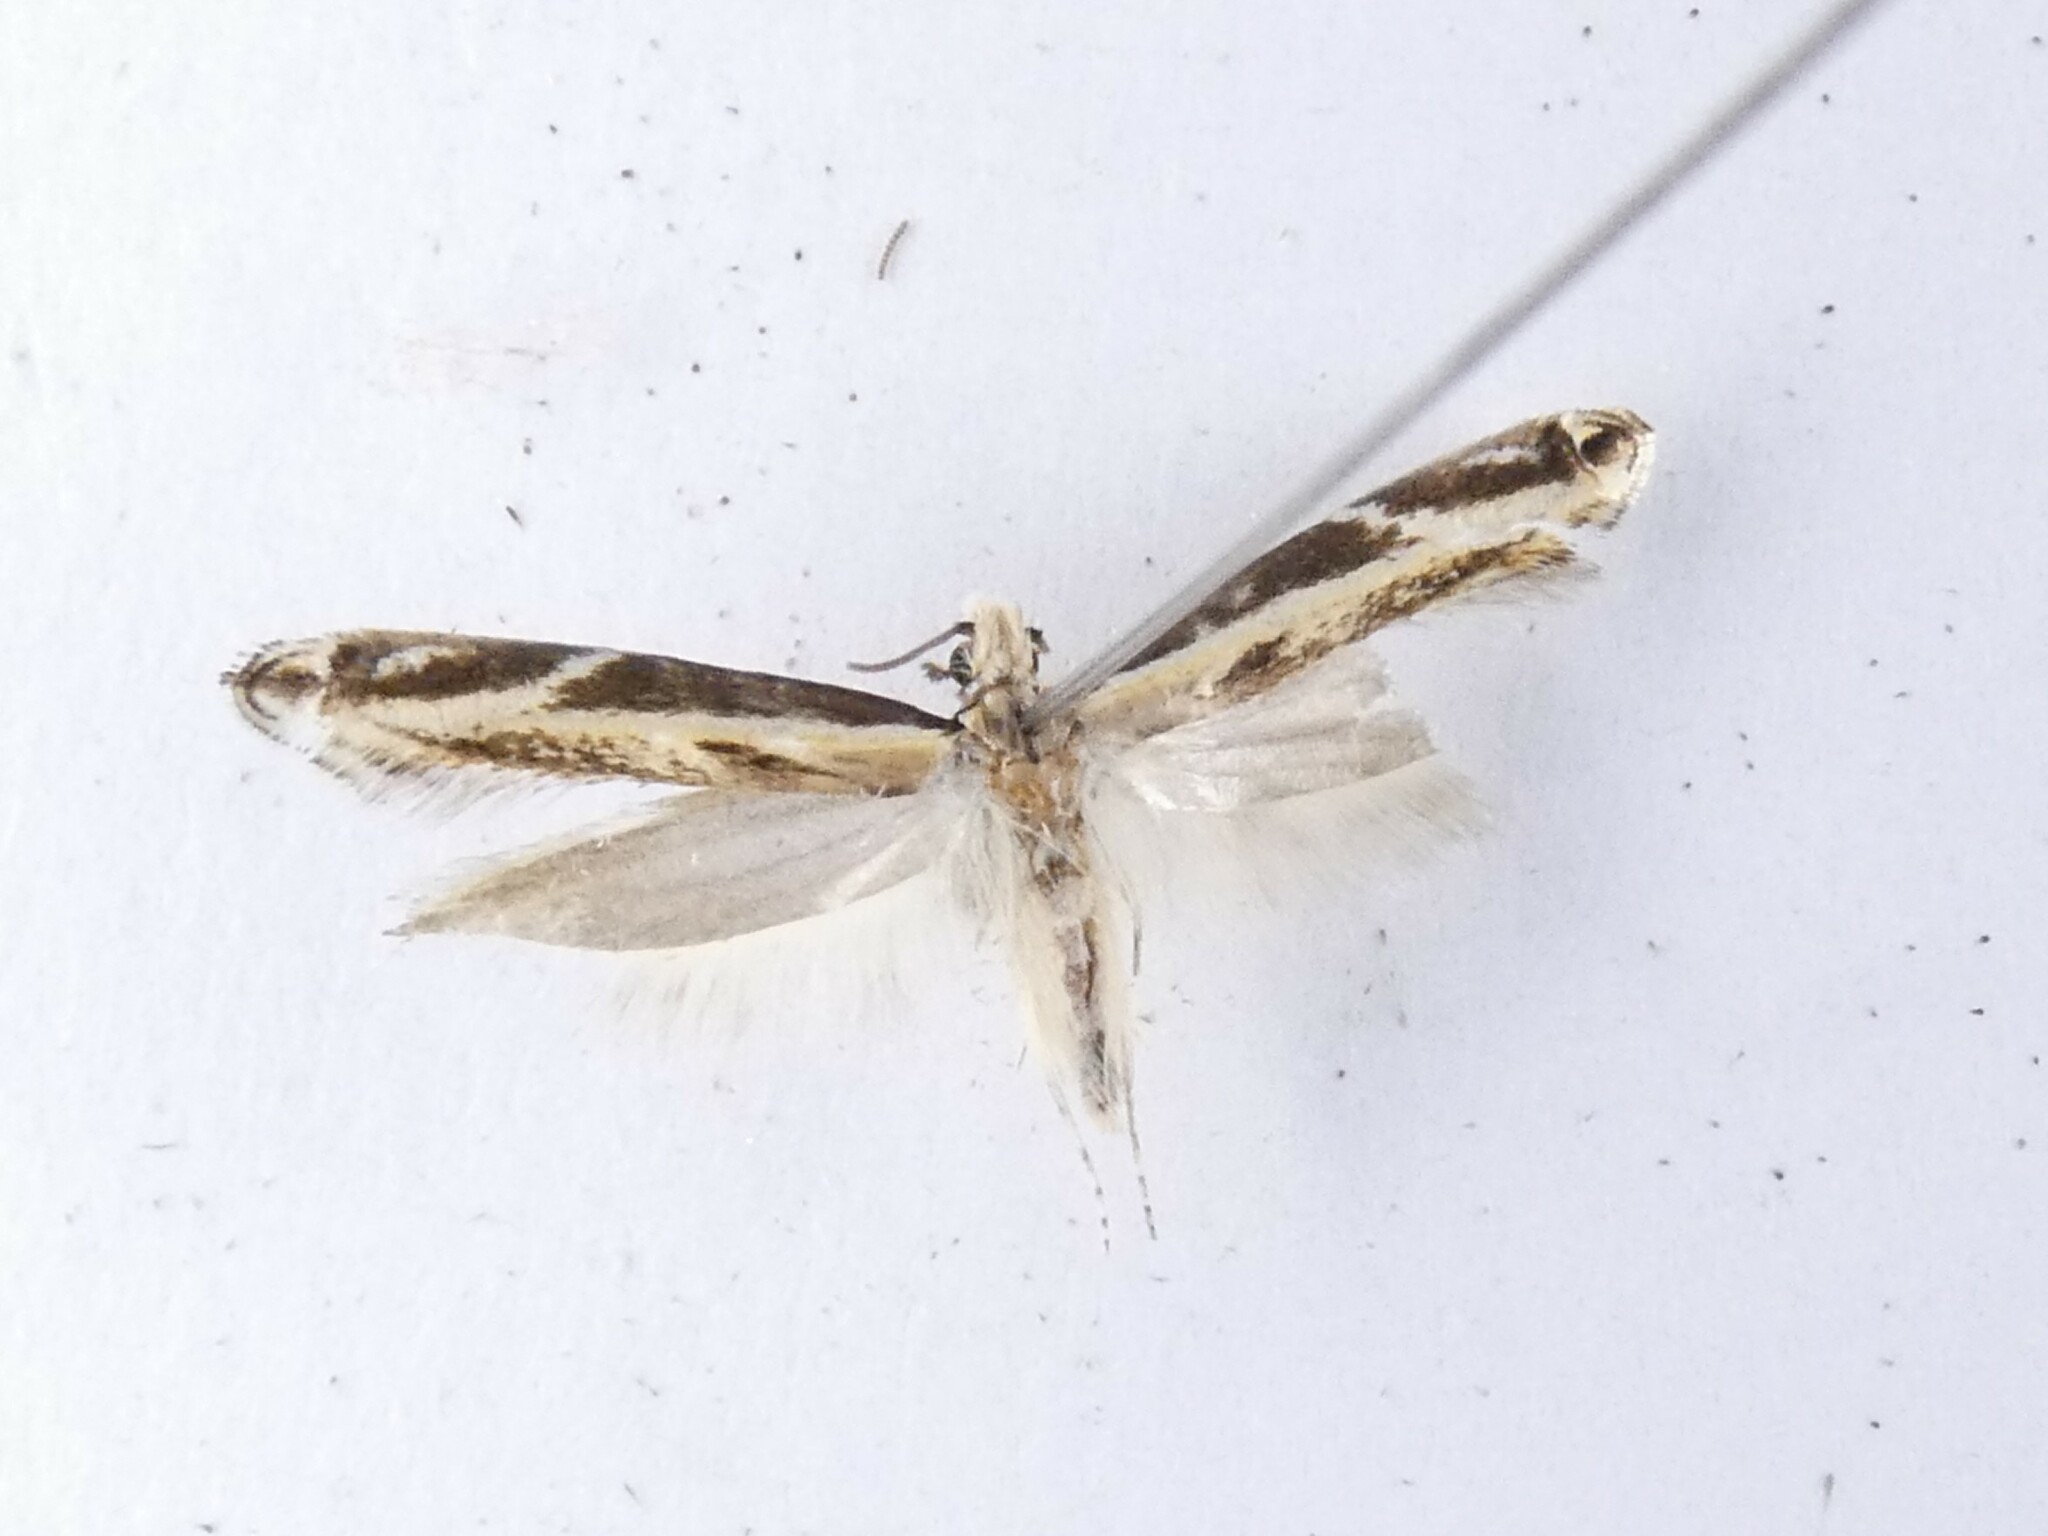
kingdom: Animalia
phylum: Arthropoda
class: Insecta
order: Lepidoptera
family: Tineidae
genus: Erechthias
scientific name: Erechthias terminella
